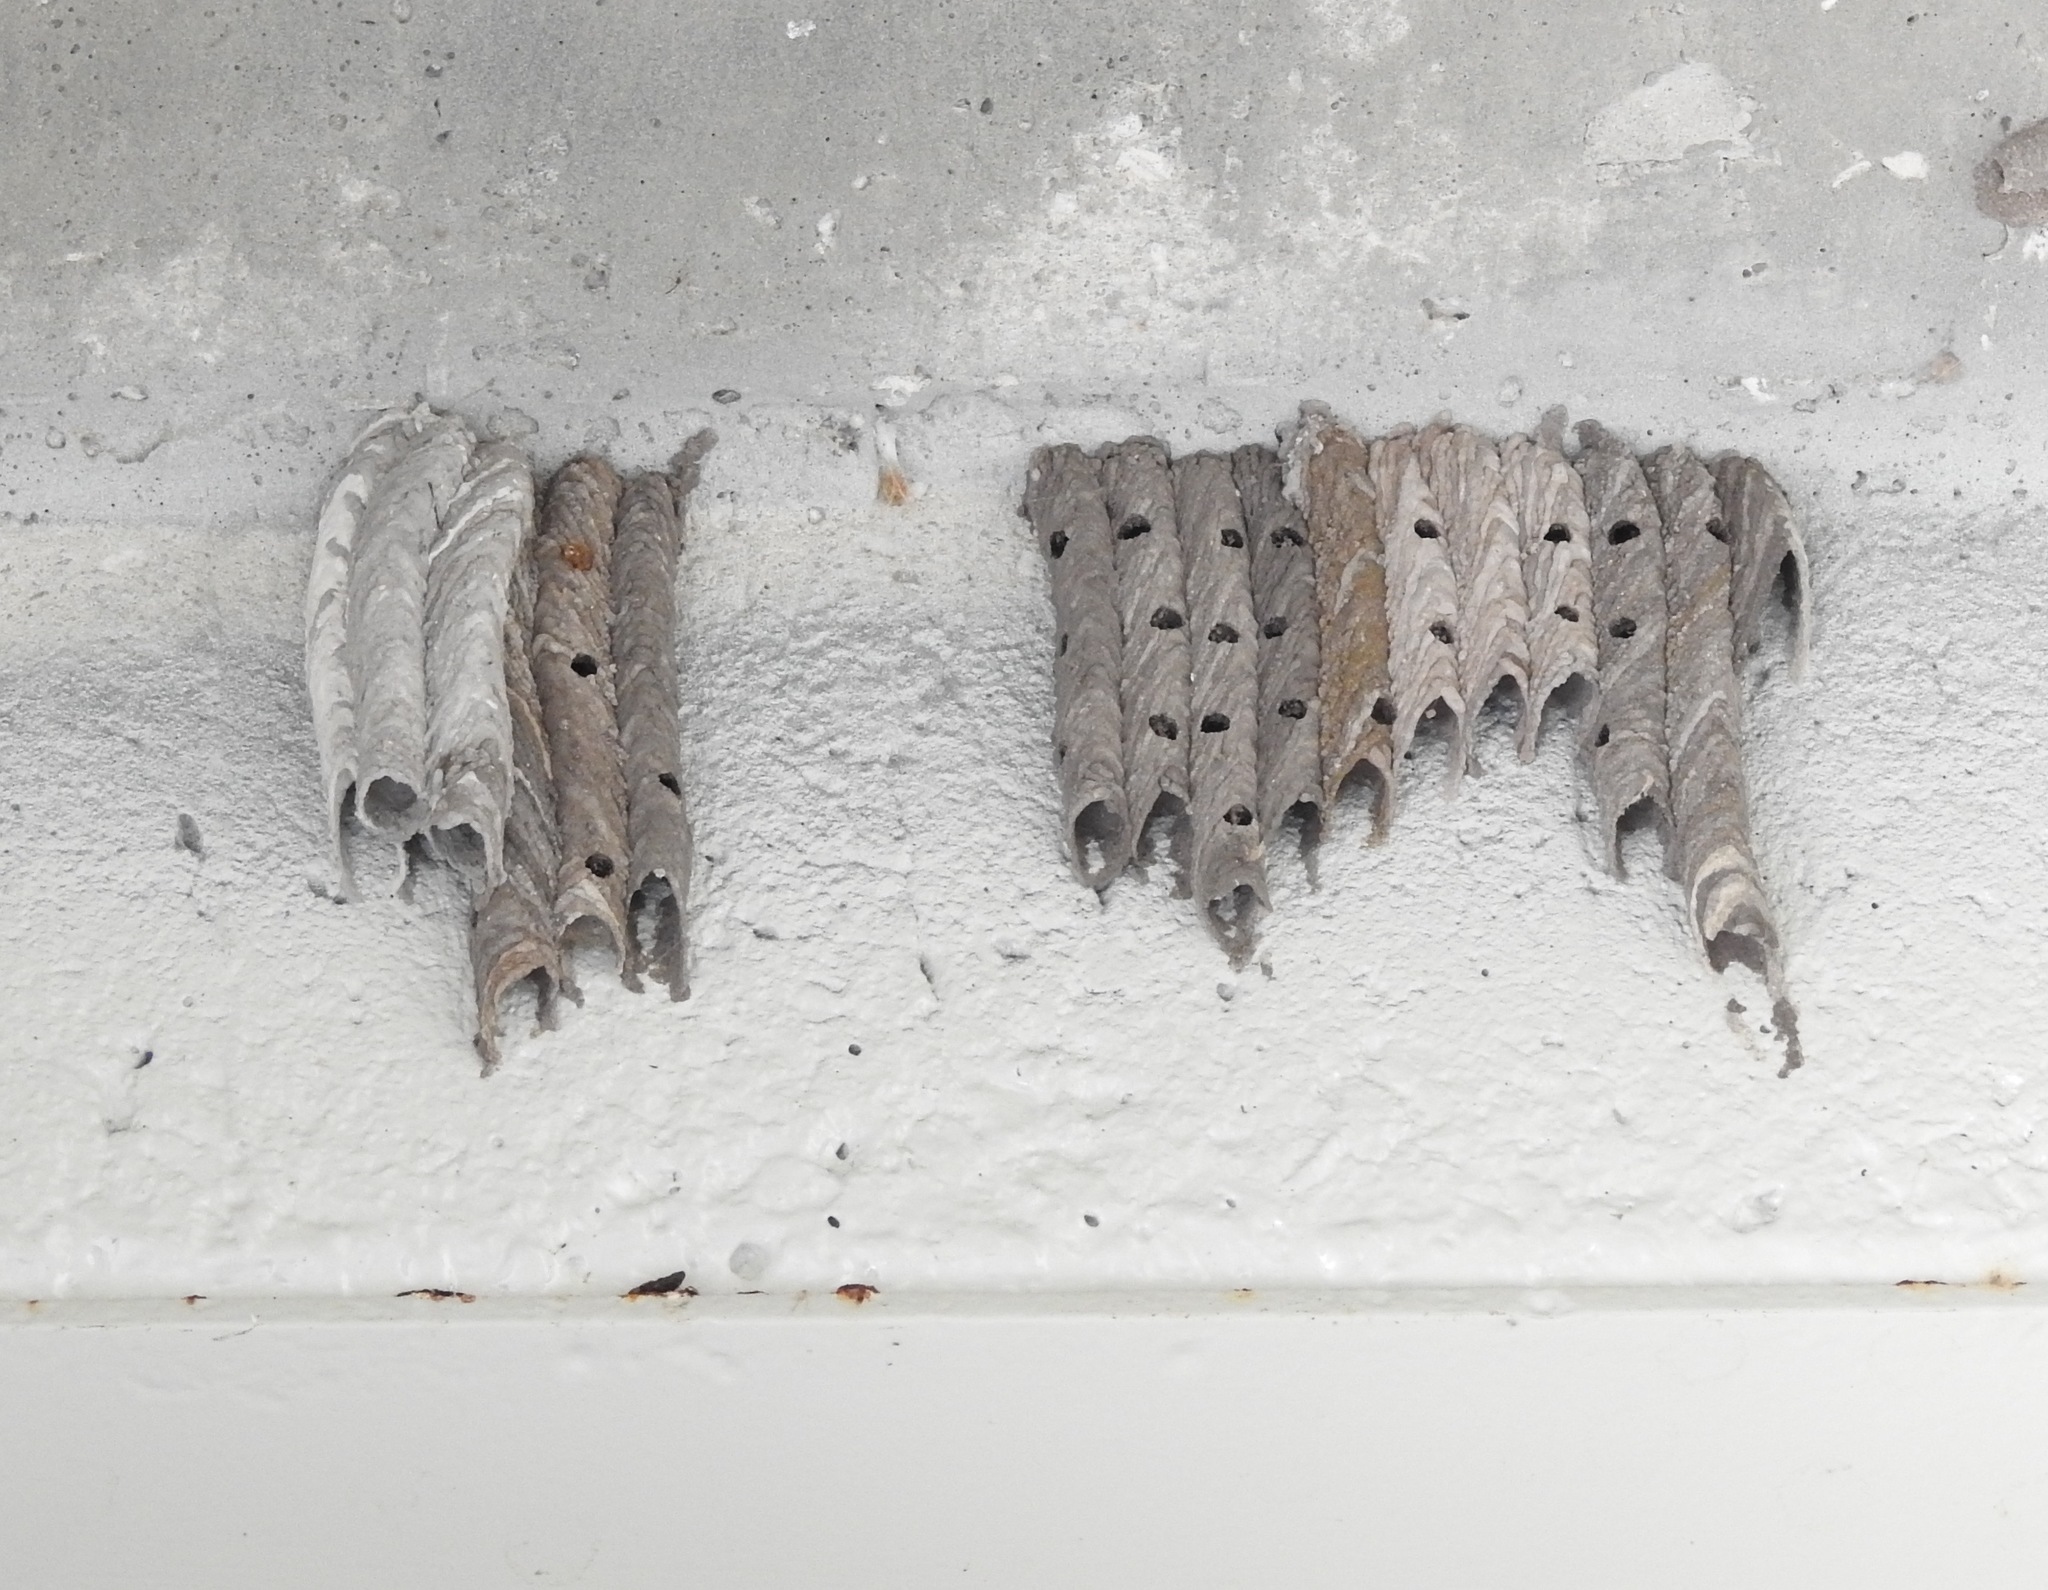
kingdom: Animalia
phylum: Arthropoda
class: Insecta
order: Hymenoptera
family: Crabronidae
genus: Trypoxylon
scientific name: Trypoxylon politum
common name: Organ-pipe mud-dauber wasp
